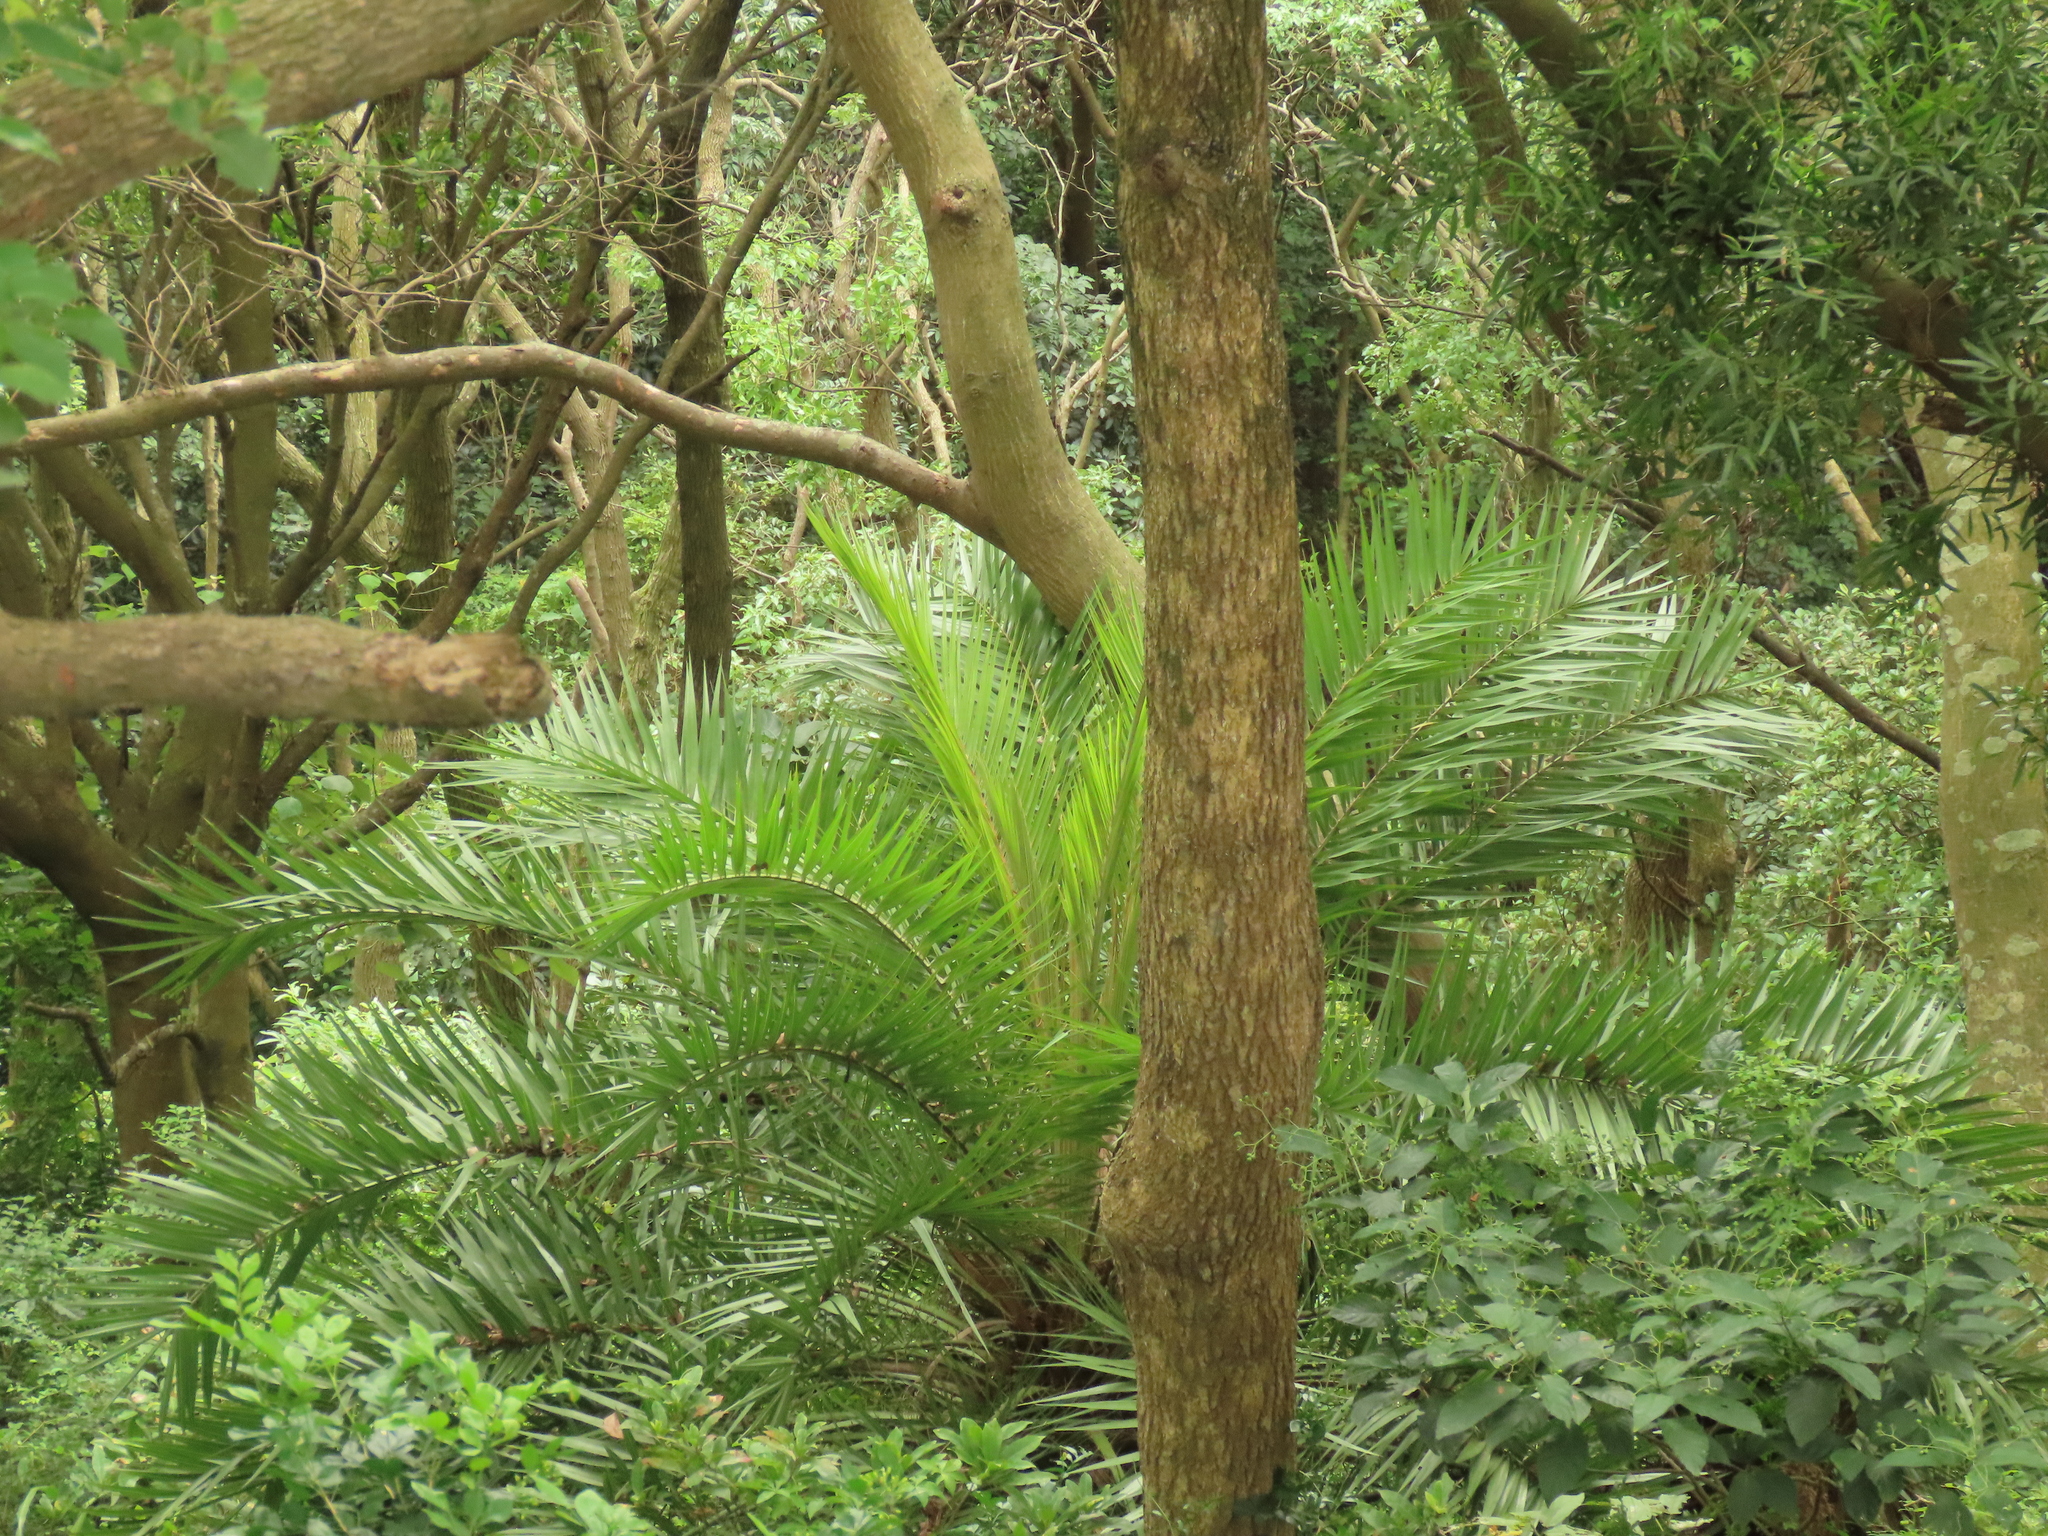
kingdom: Plantae
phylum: Tracheophyta
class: Liliopsida
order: Arecales
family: Arecaceae
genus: Phoenix
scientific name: Phoenix loureiroi
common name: Loureiro's palm
